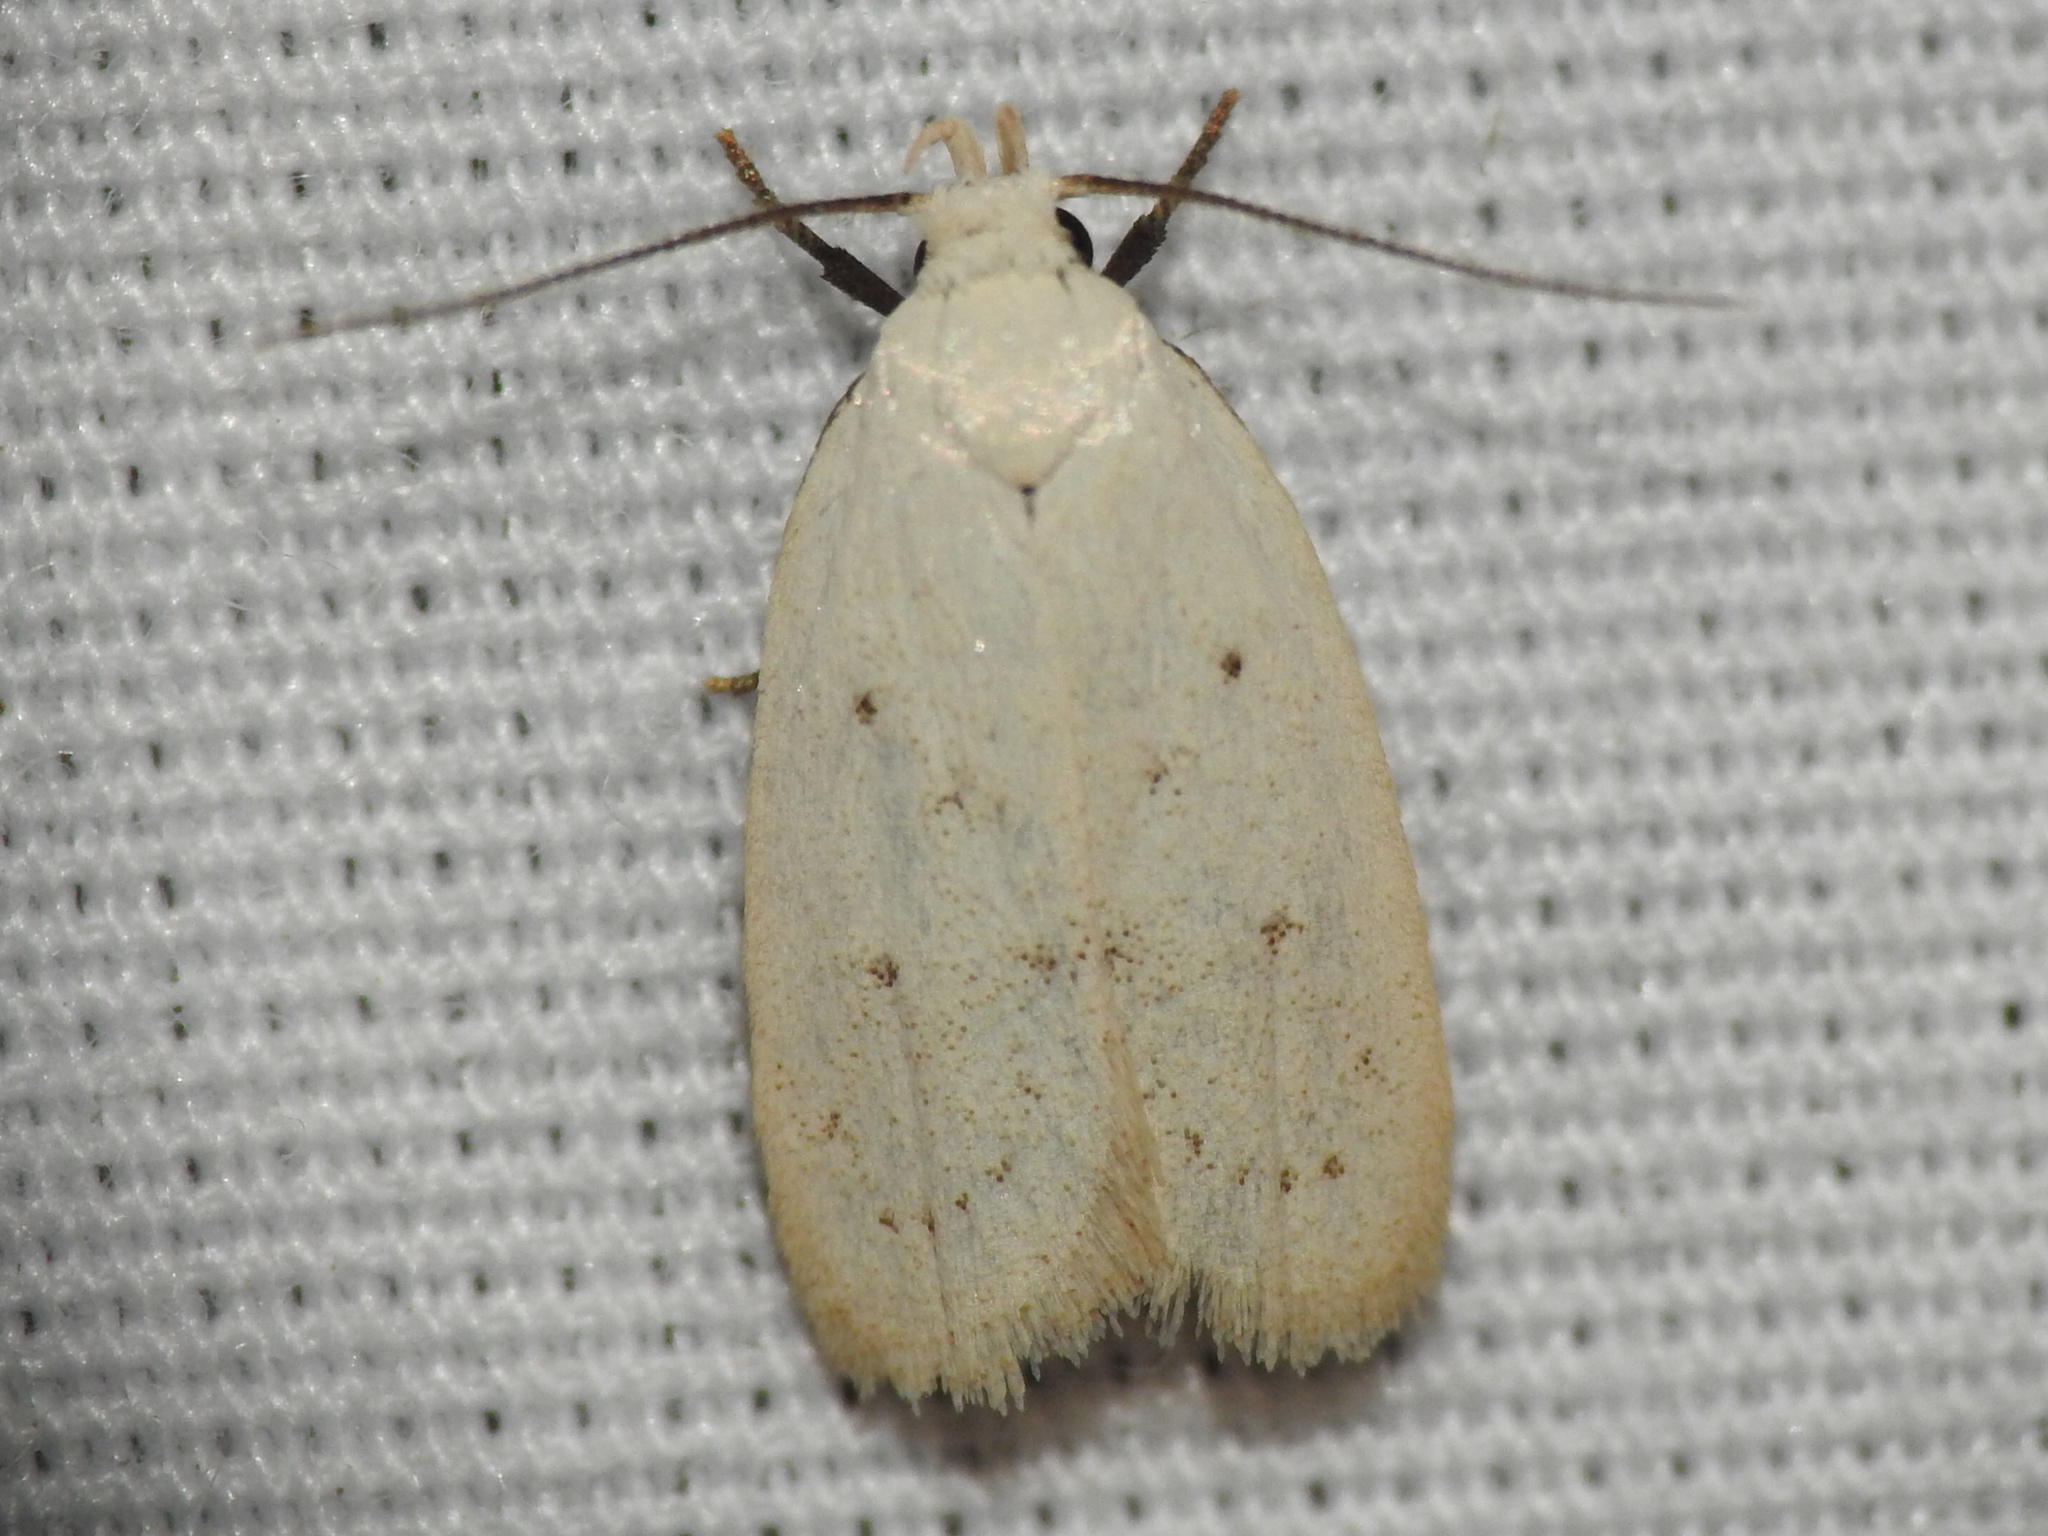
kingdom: Animalia
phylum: Arthropoda
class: Insecta
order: Lepidoptera
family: Oecophoridae
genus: Inga
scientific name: Inga cretacea
